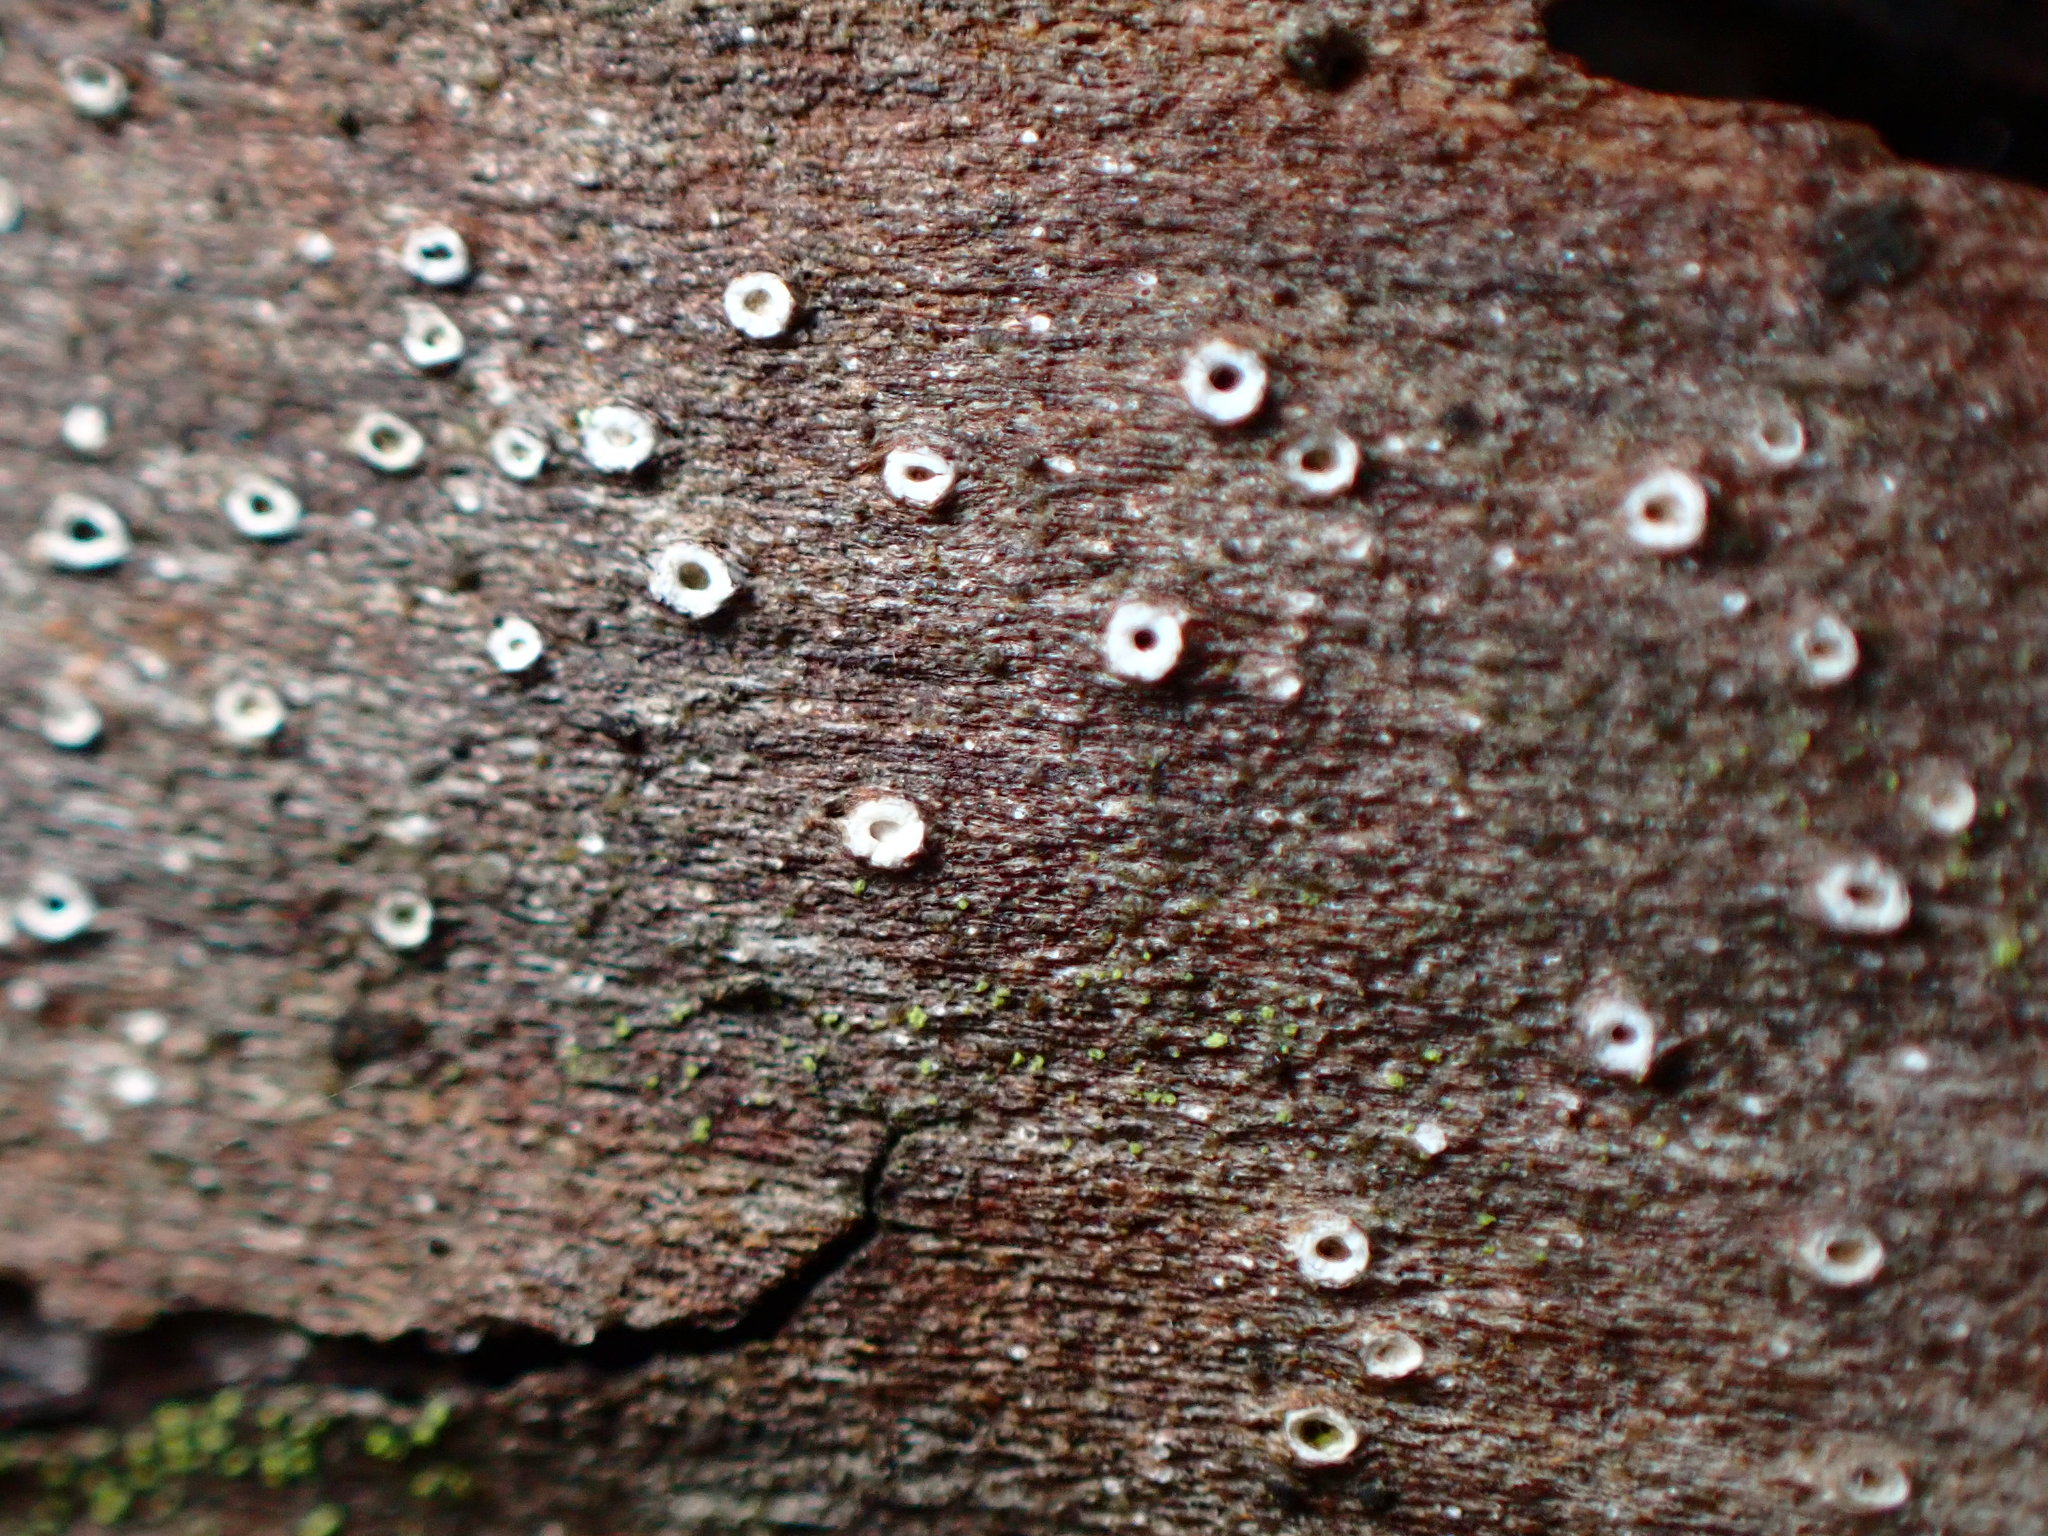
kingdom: Fungi
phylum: Ascomycota
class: Lecanoromycetes
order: Ostropales
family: Stictidaceae
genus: Stictis
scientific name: Stictis radiata
